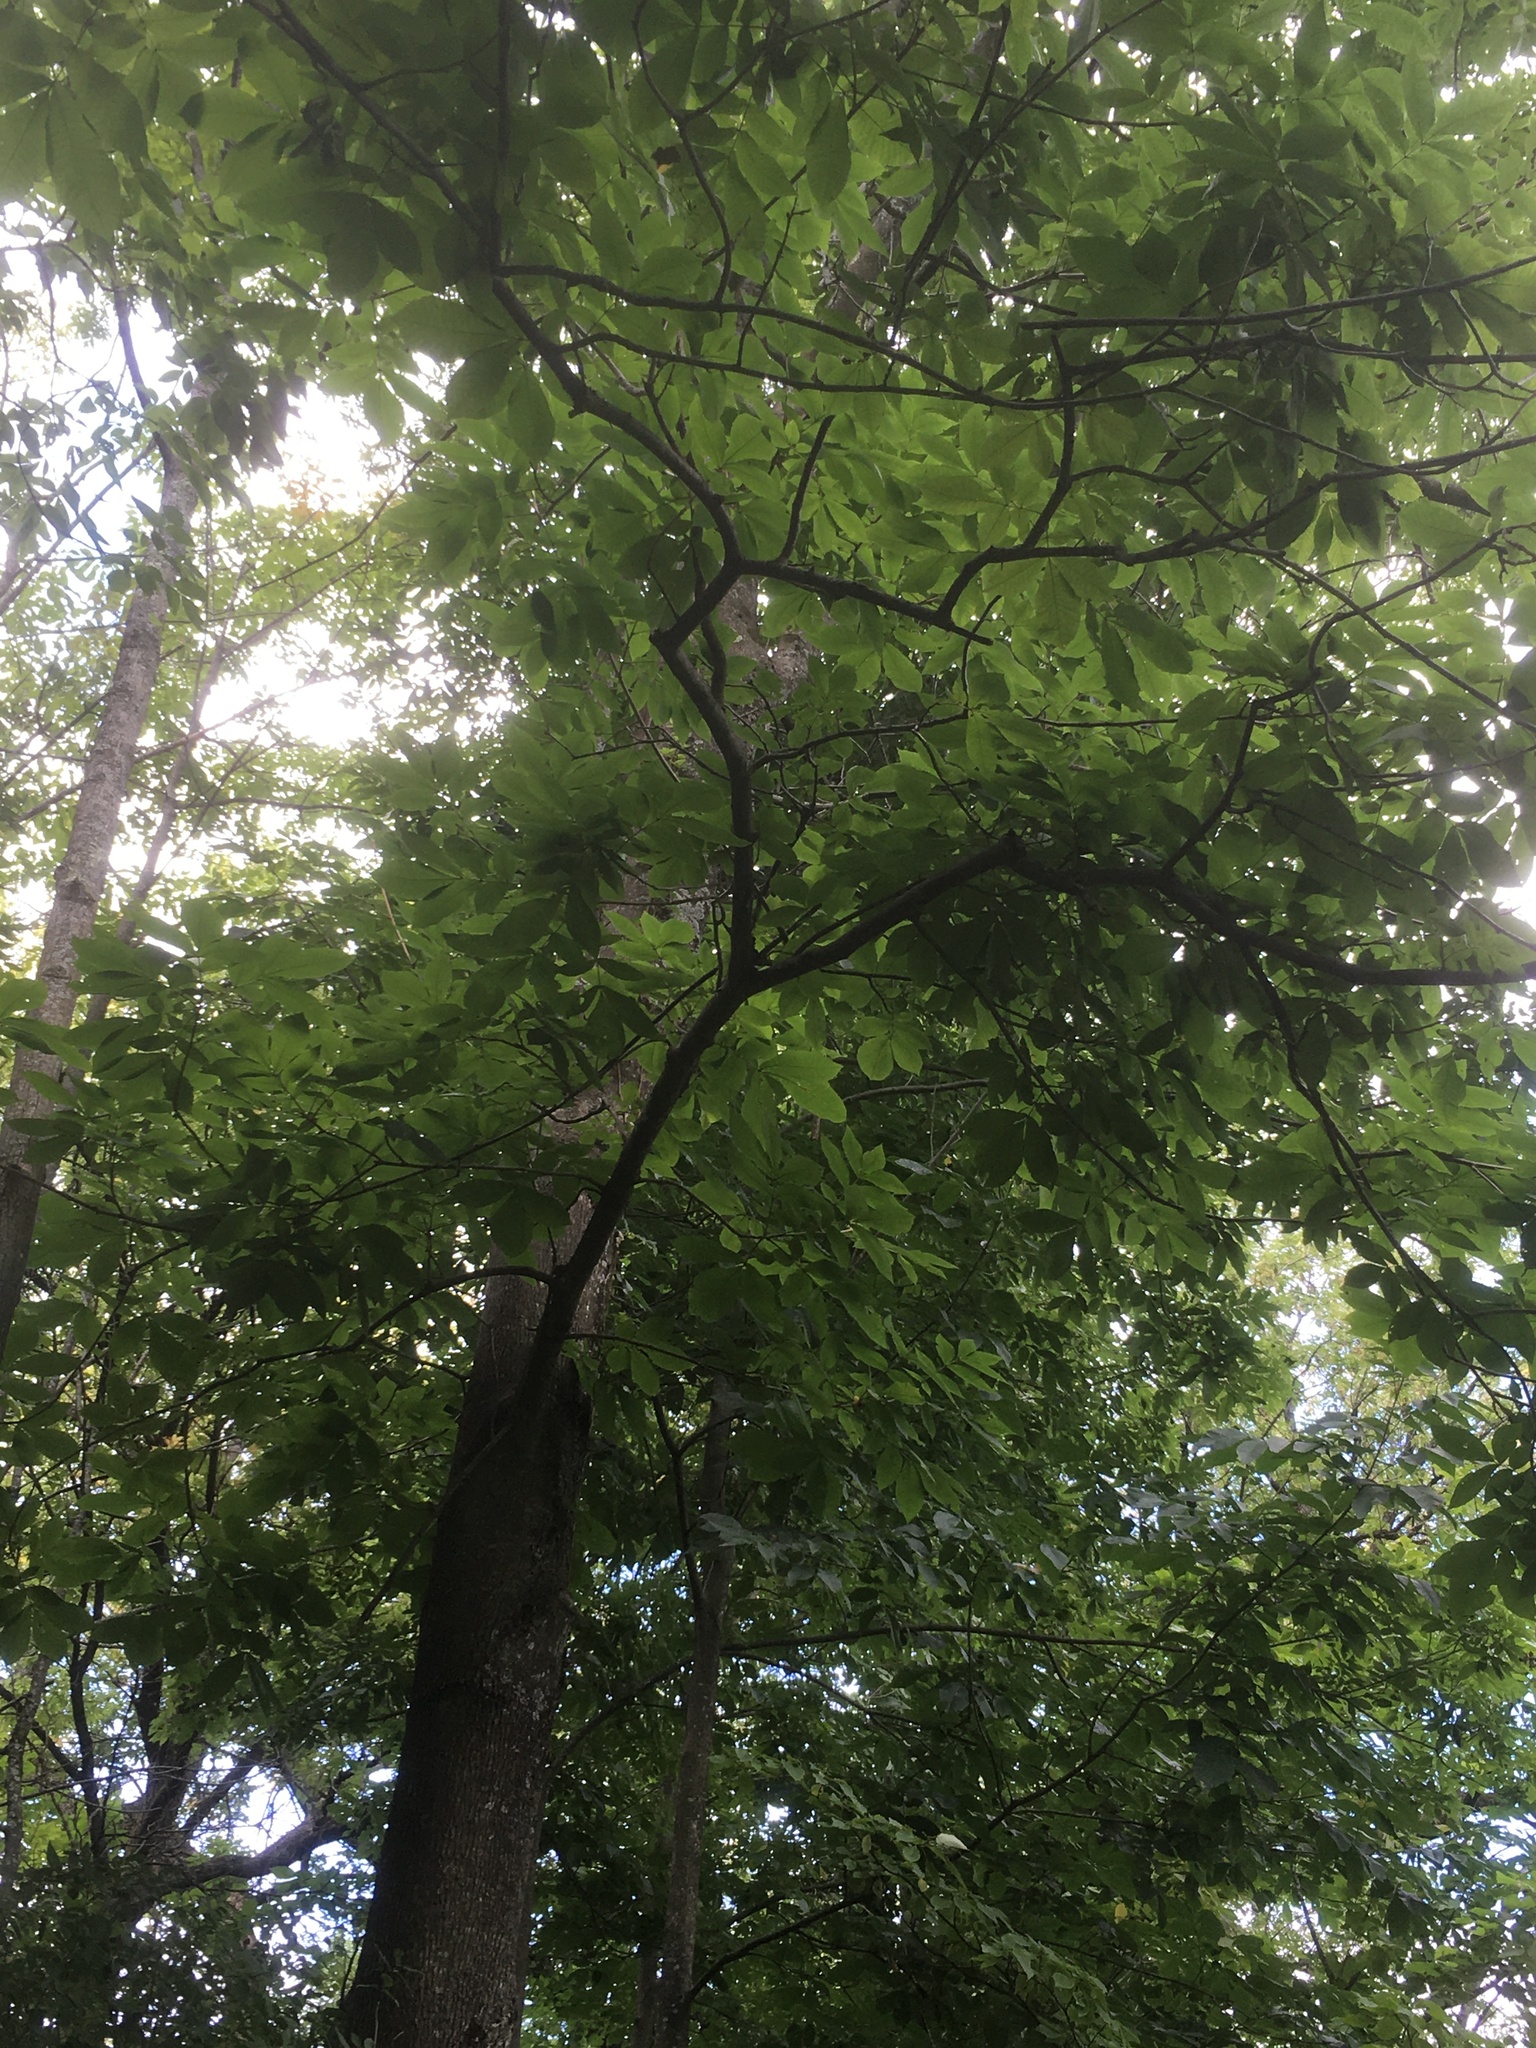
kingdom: Plantae
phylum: Tracheophyta
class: Magnoliopsida
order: Fagales
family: Juglandaceae
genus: Carya
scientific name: Carya cordiformis
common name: Bitternut hickory
